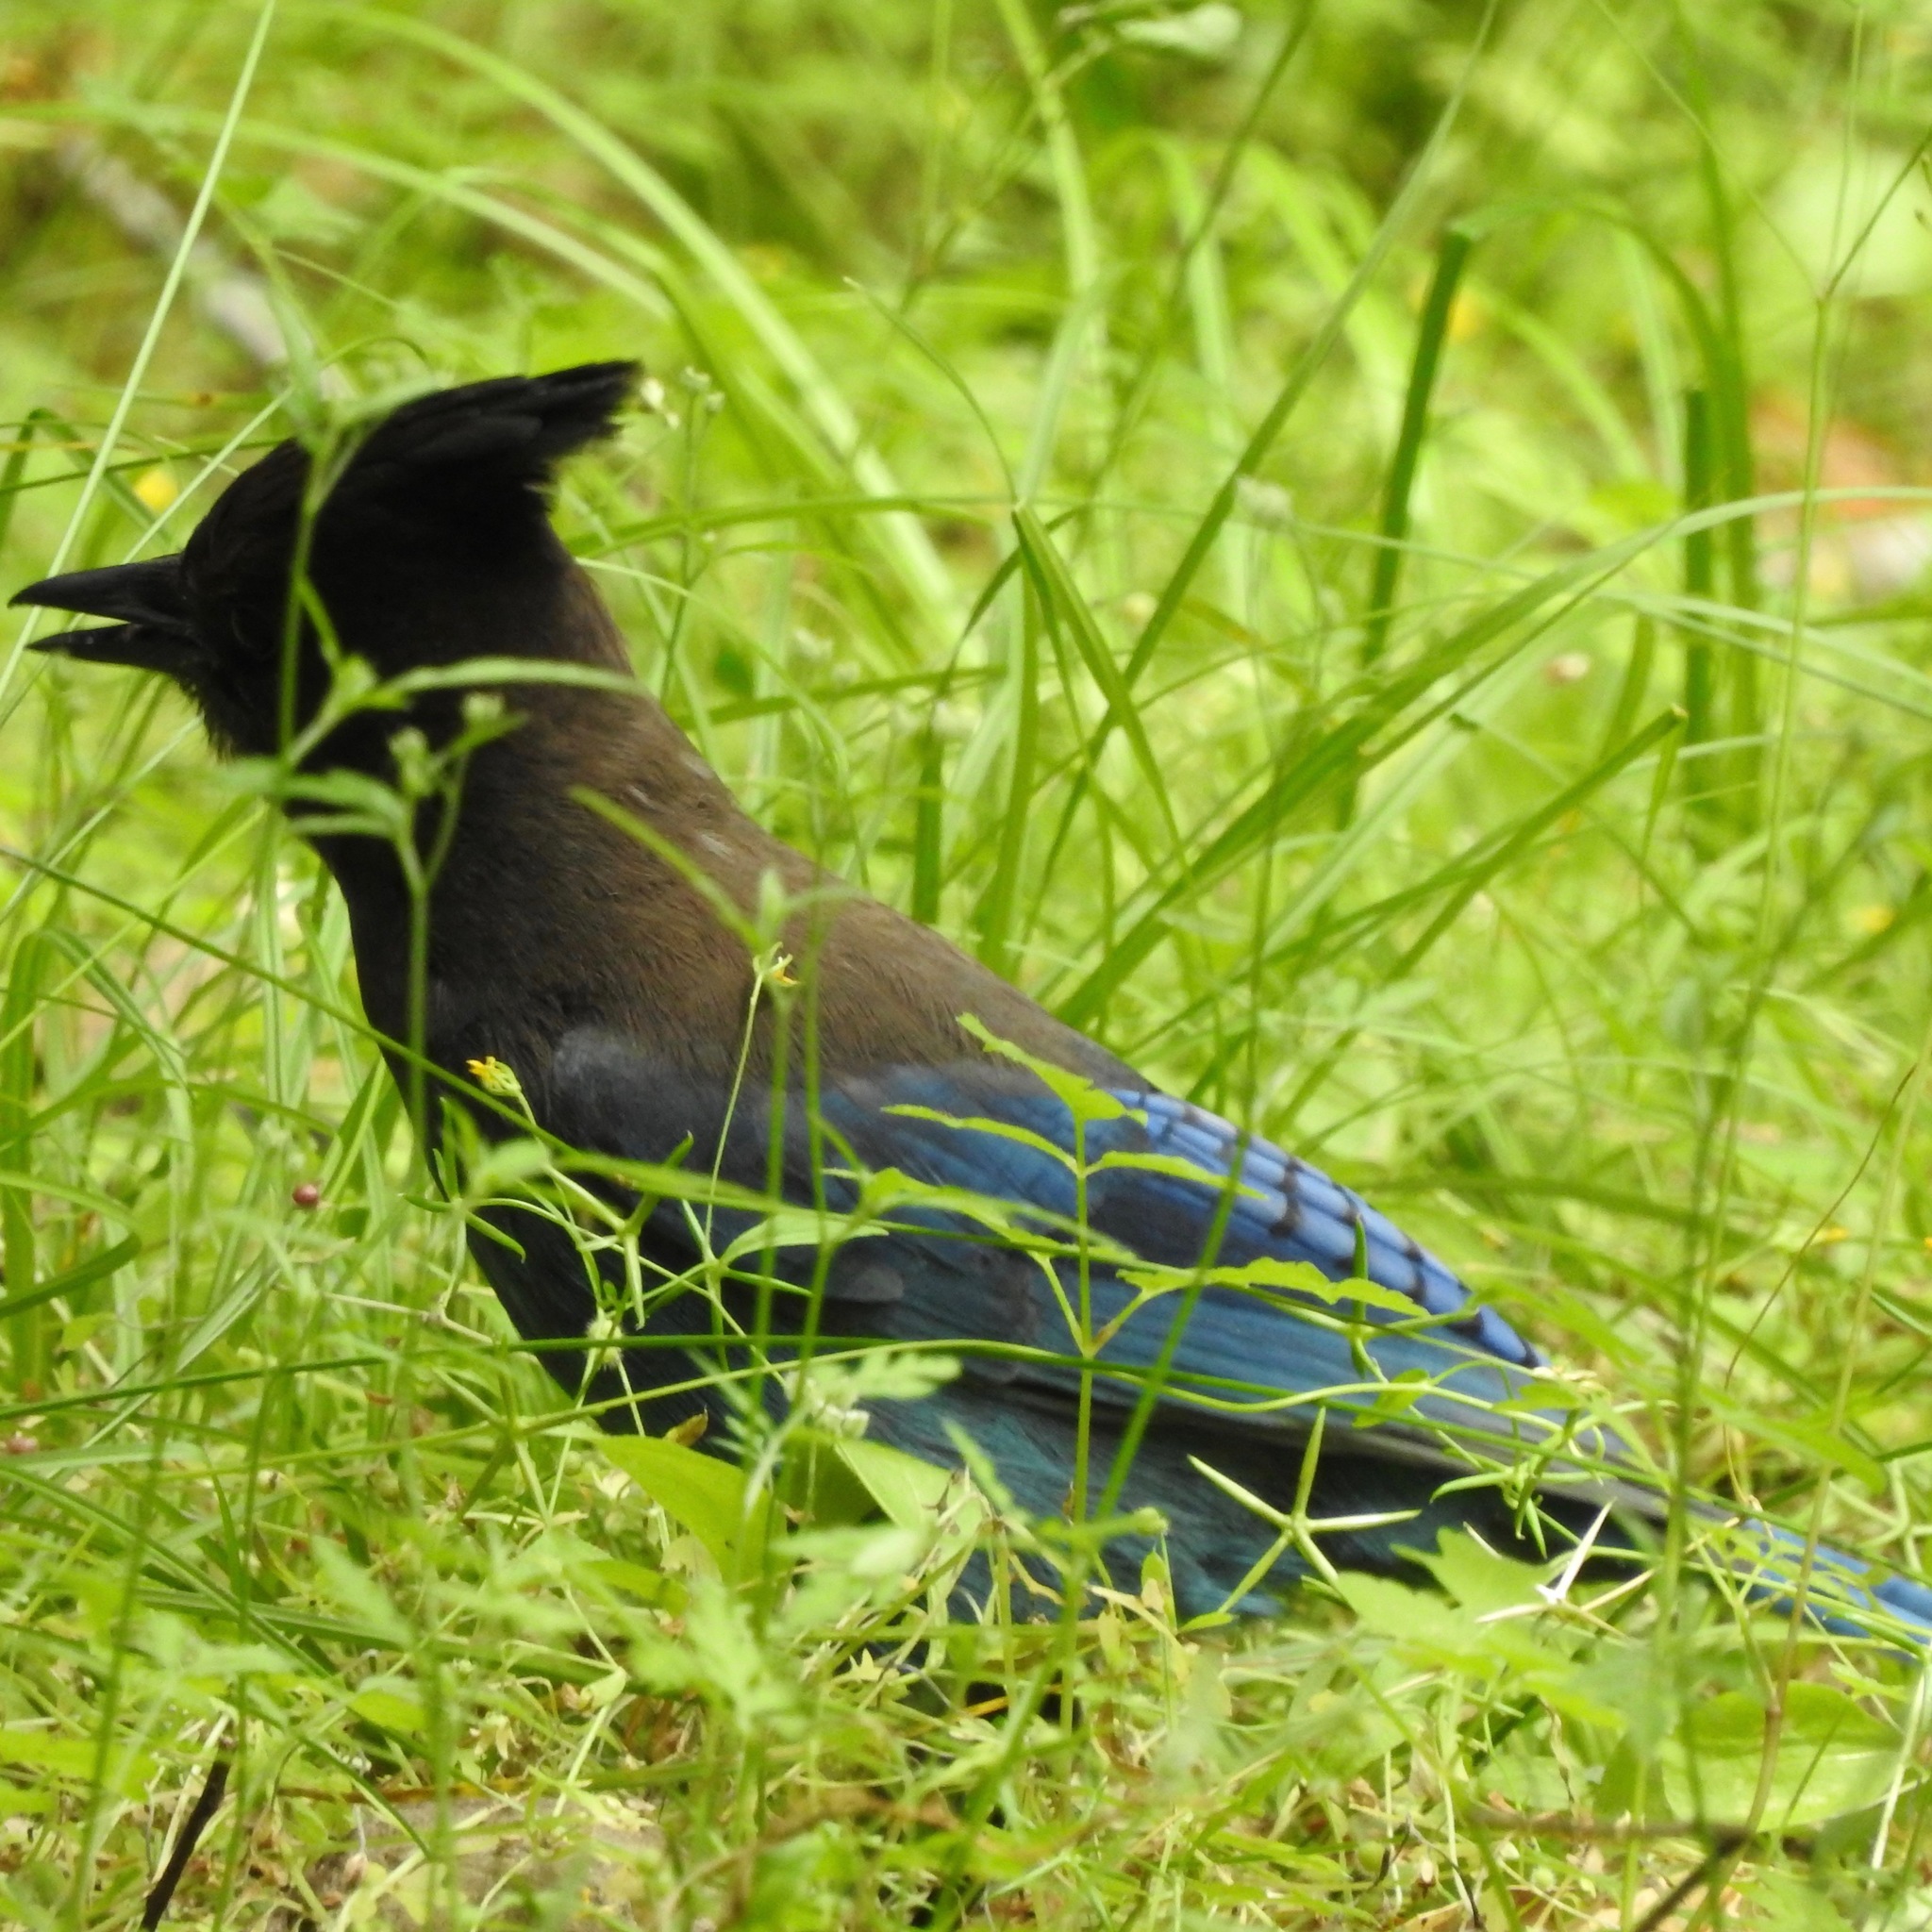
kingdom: Animalia
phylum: Chordata
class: Aves
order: Passeriformes
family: Corvidae
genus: Cyanocitta
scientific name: Cyanocitta stelleri
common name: Steller's jay
